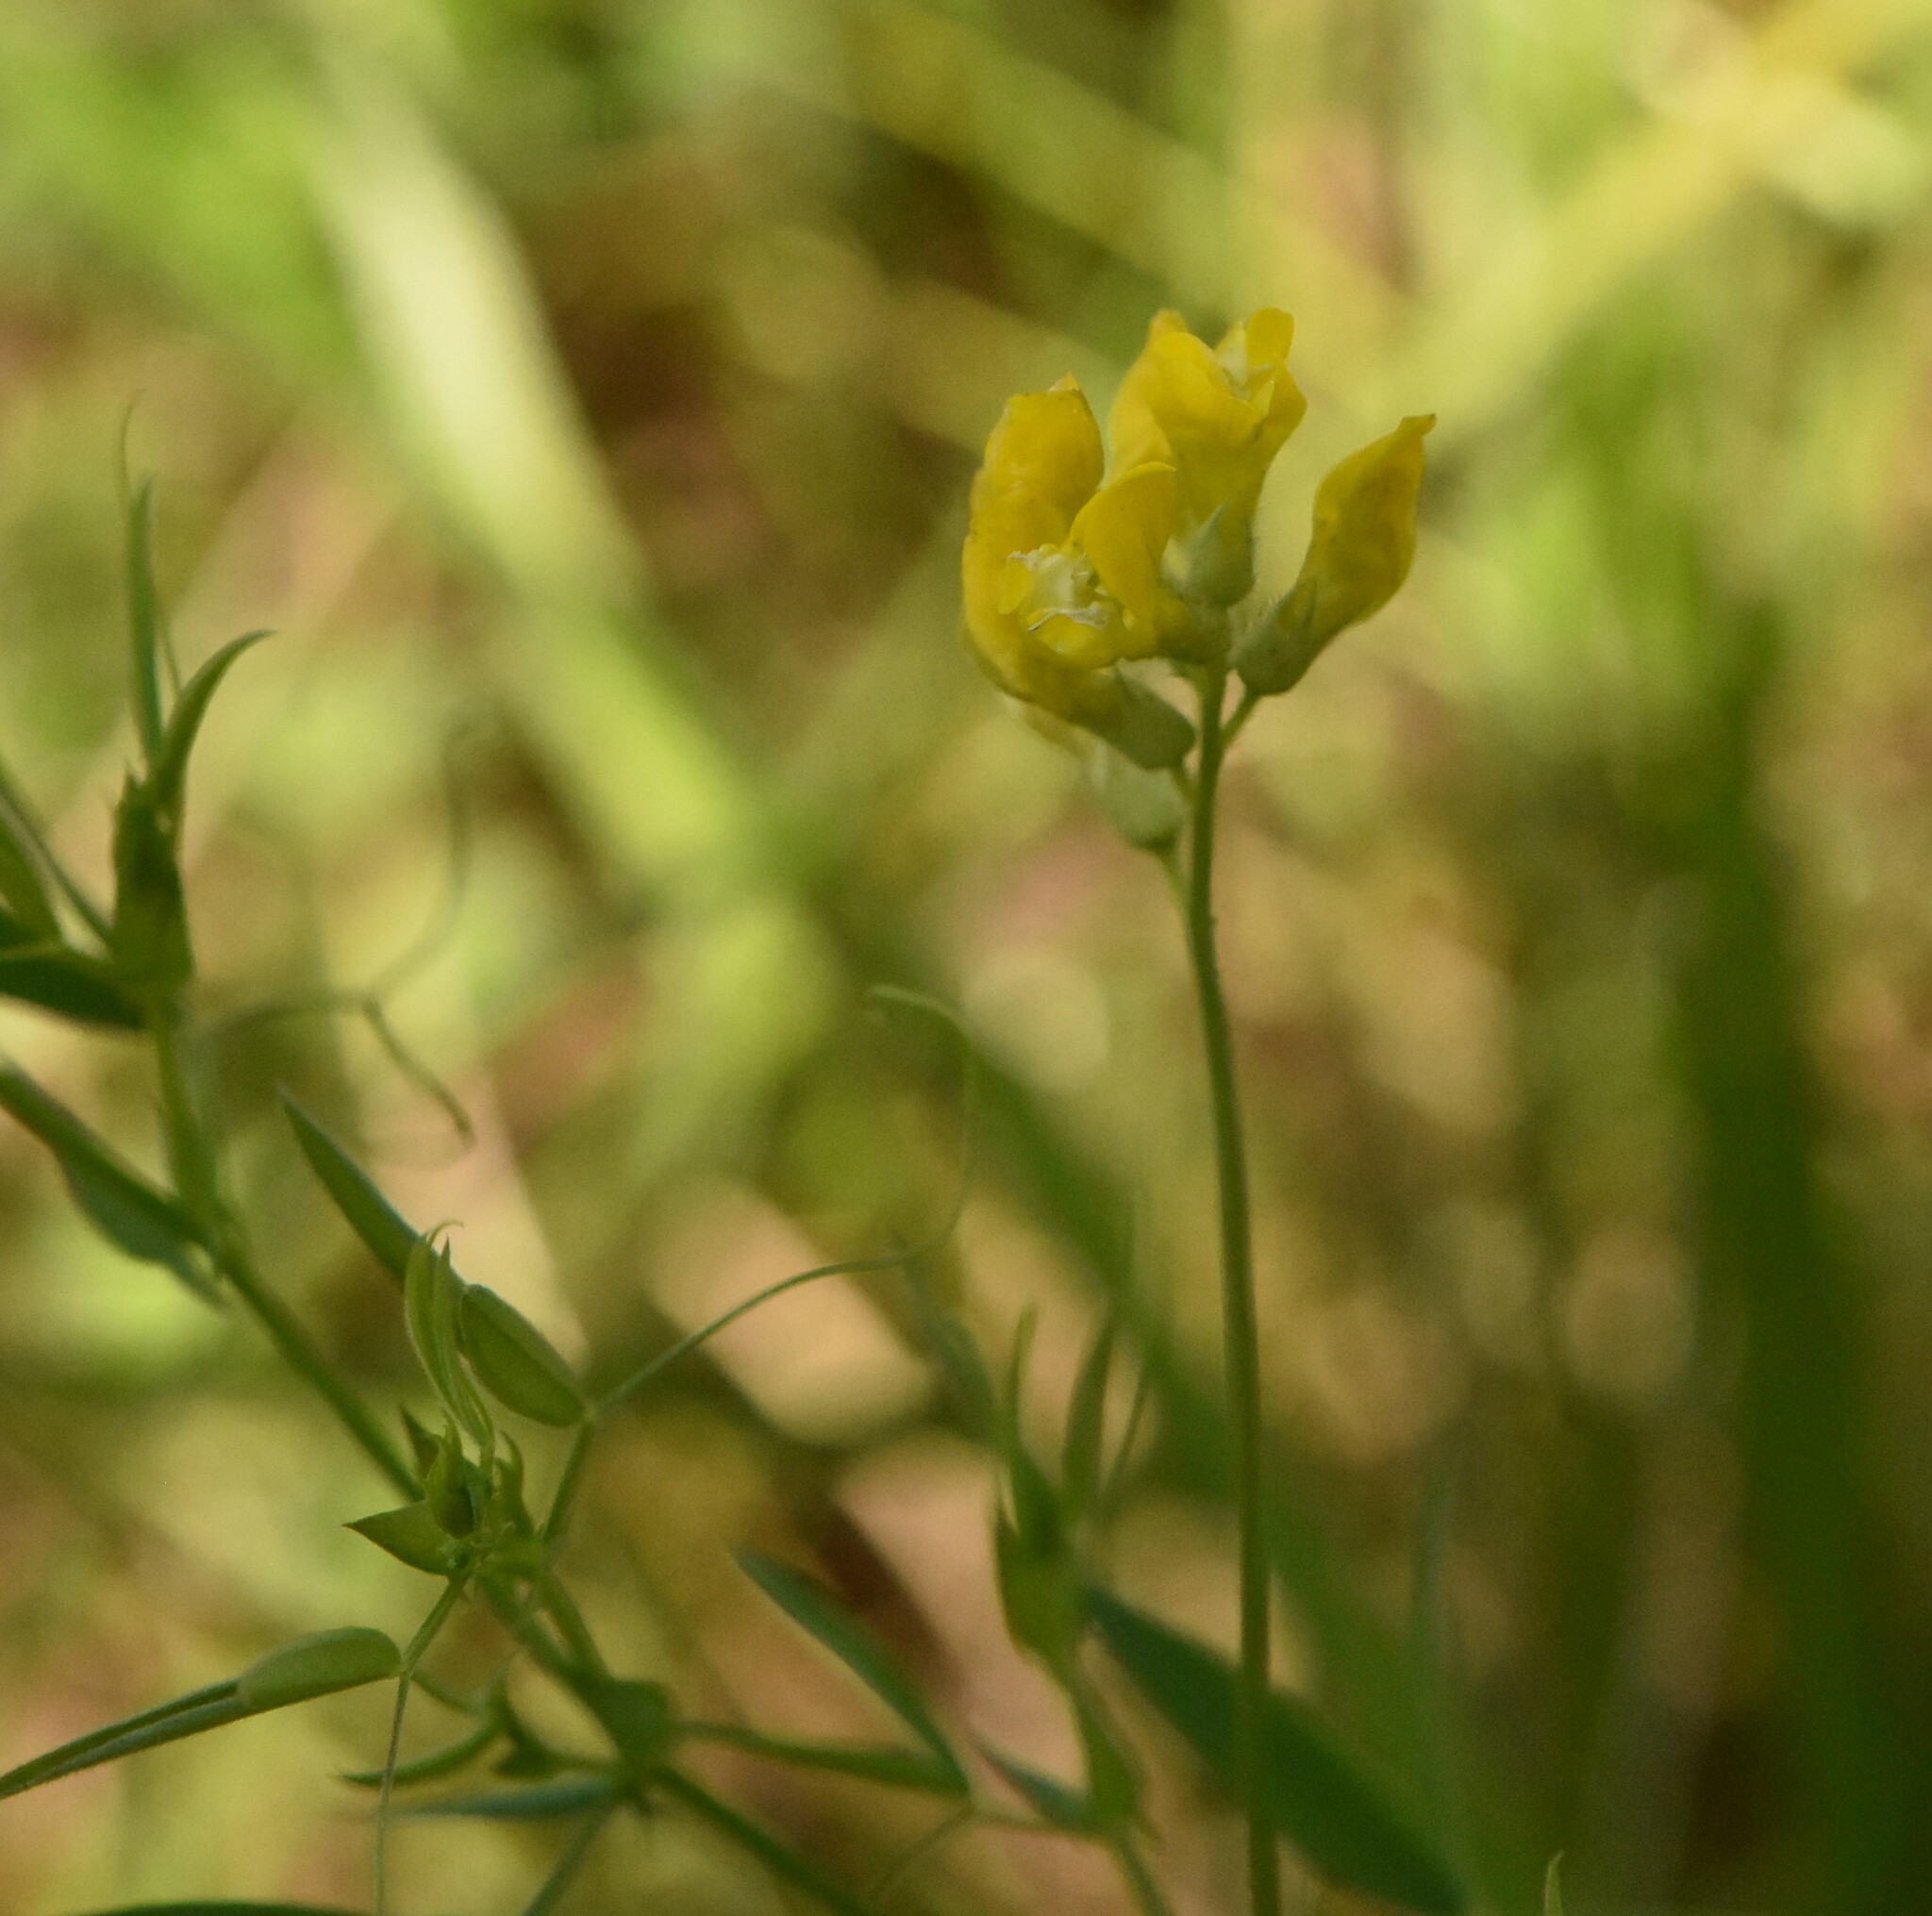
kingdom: Plantae
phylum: Tracheophyta
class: Magnoliopsida
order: Fabales
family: Fabaceae
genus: Lathyrus
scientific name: Lathyrus pratensis
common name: Meadow vetchling
